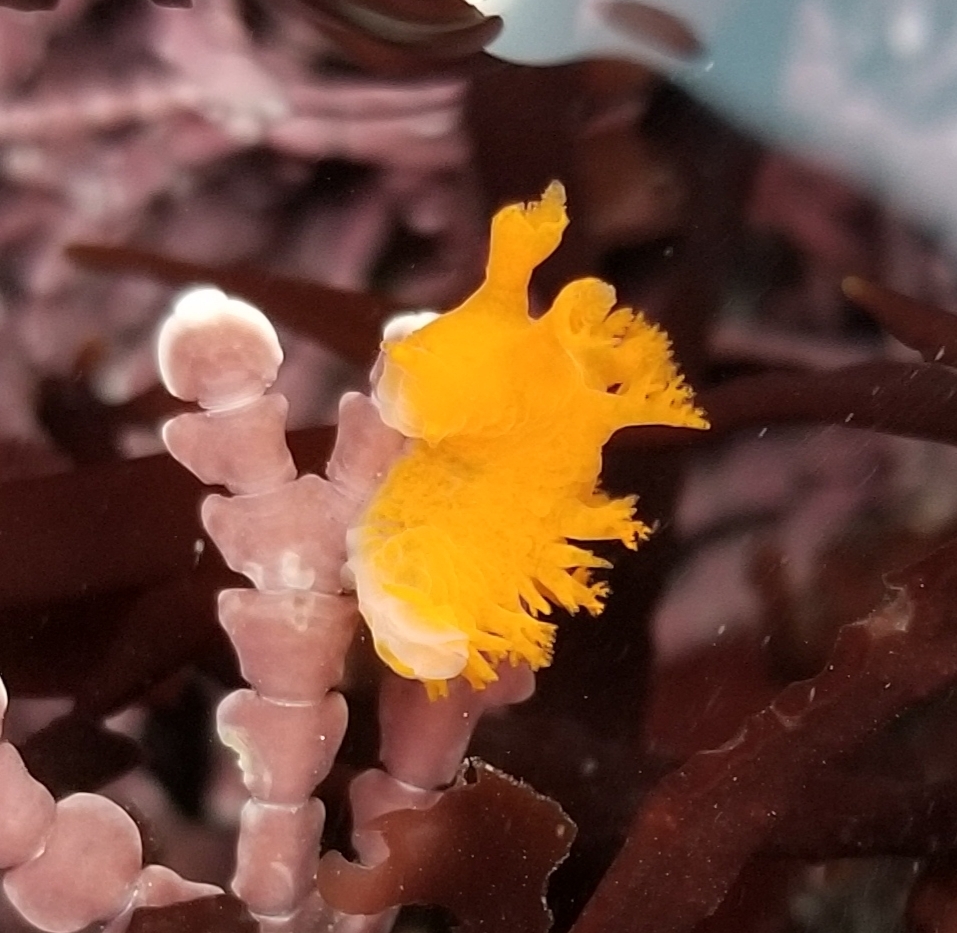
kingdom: Animalia
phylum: Mollusca
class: Gastropoda
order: Nudibranchia
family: Dendronotidae
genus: Dendronotus
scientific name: Dendronotus subramosus
